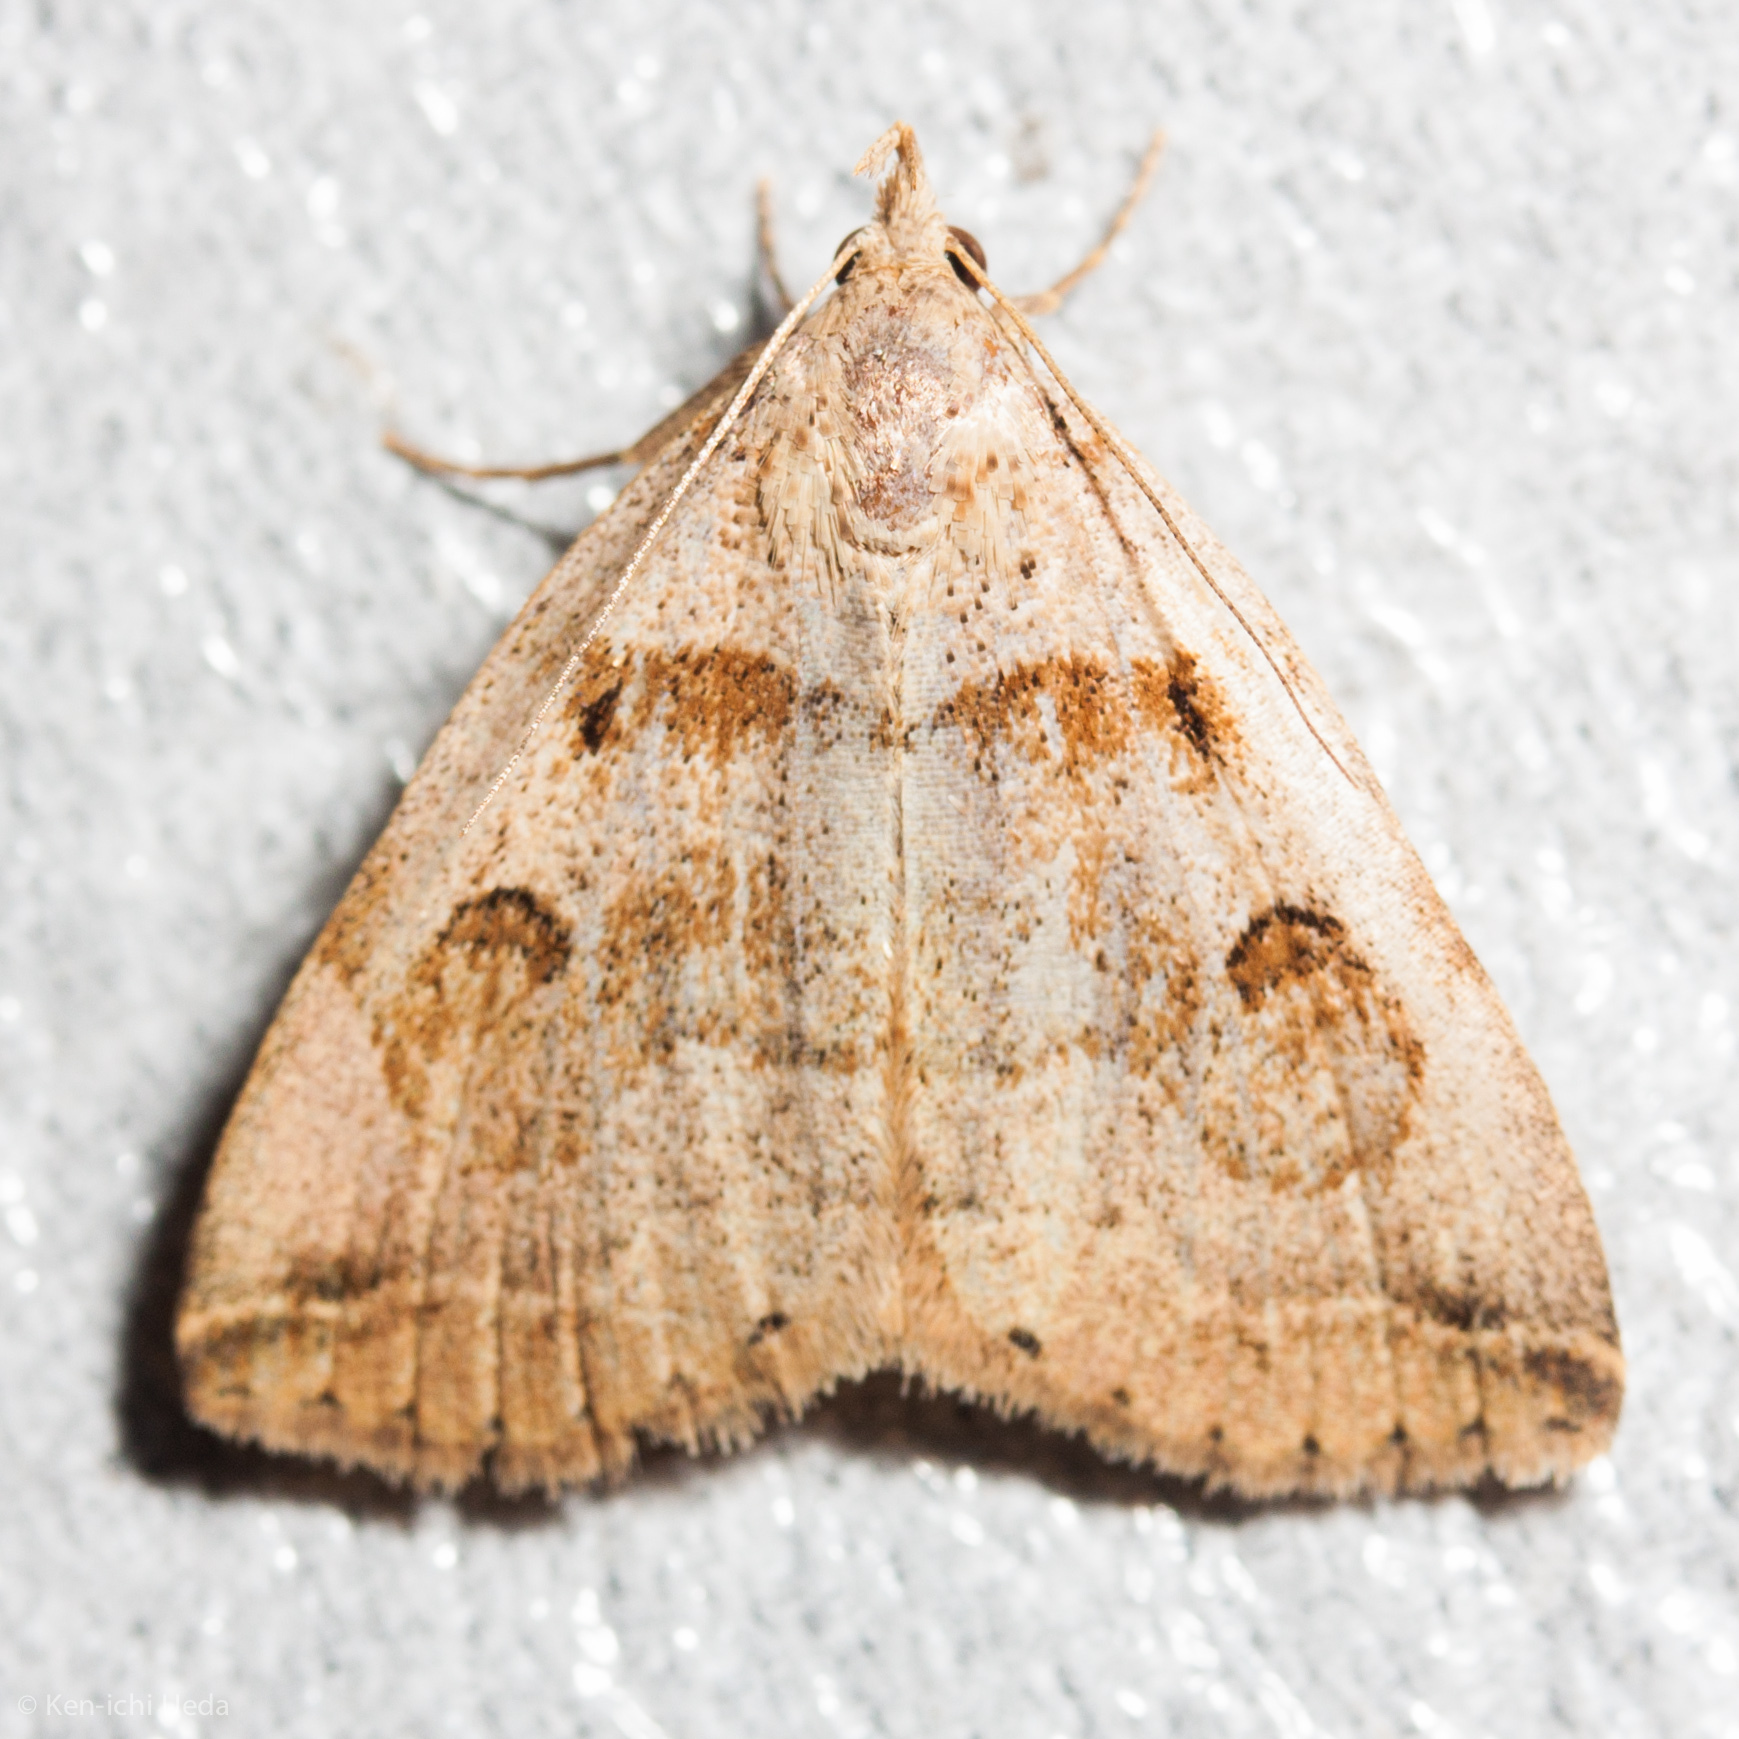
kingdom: Animalia
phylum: Arthropoda
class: Insecta
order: Lepidoptera
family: Erebidae
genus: Zanclognatha
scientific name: Zanclognatha laevigata
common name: Variable fan-foot
